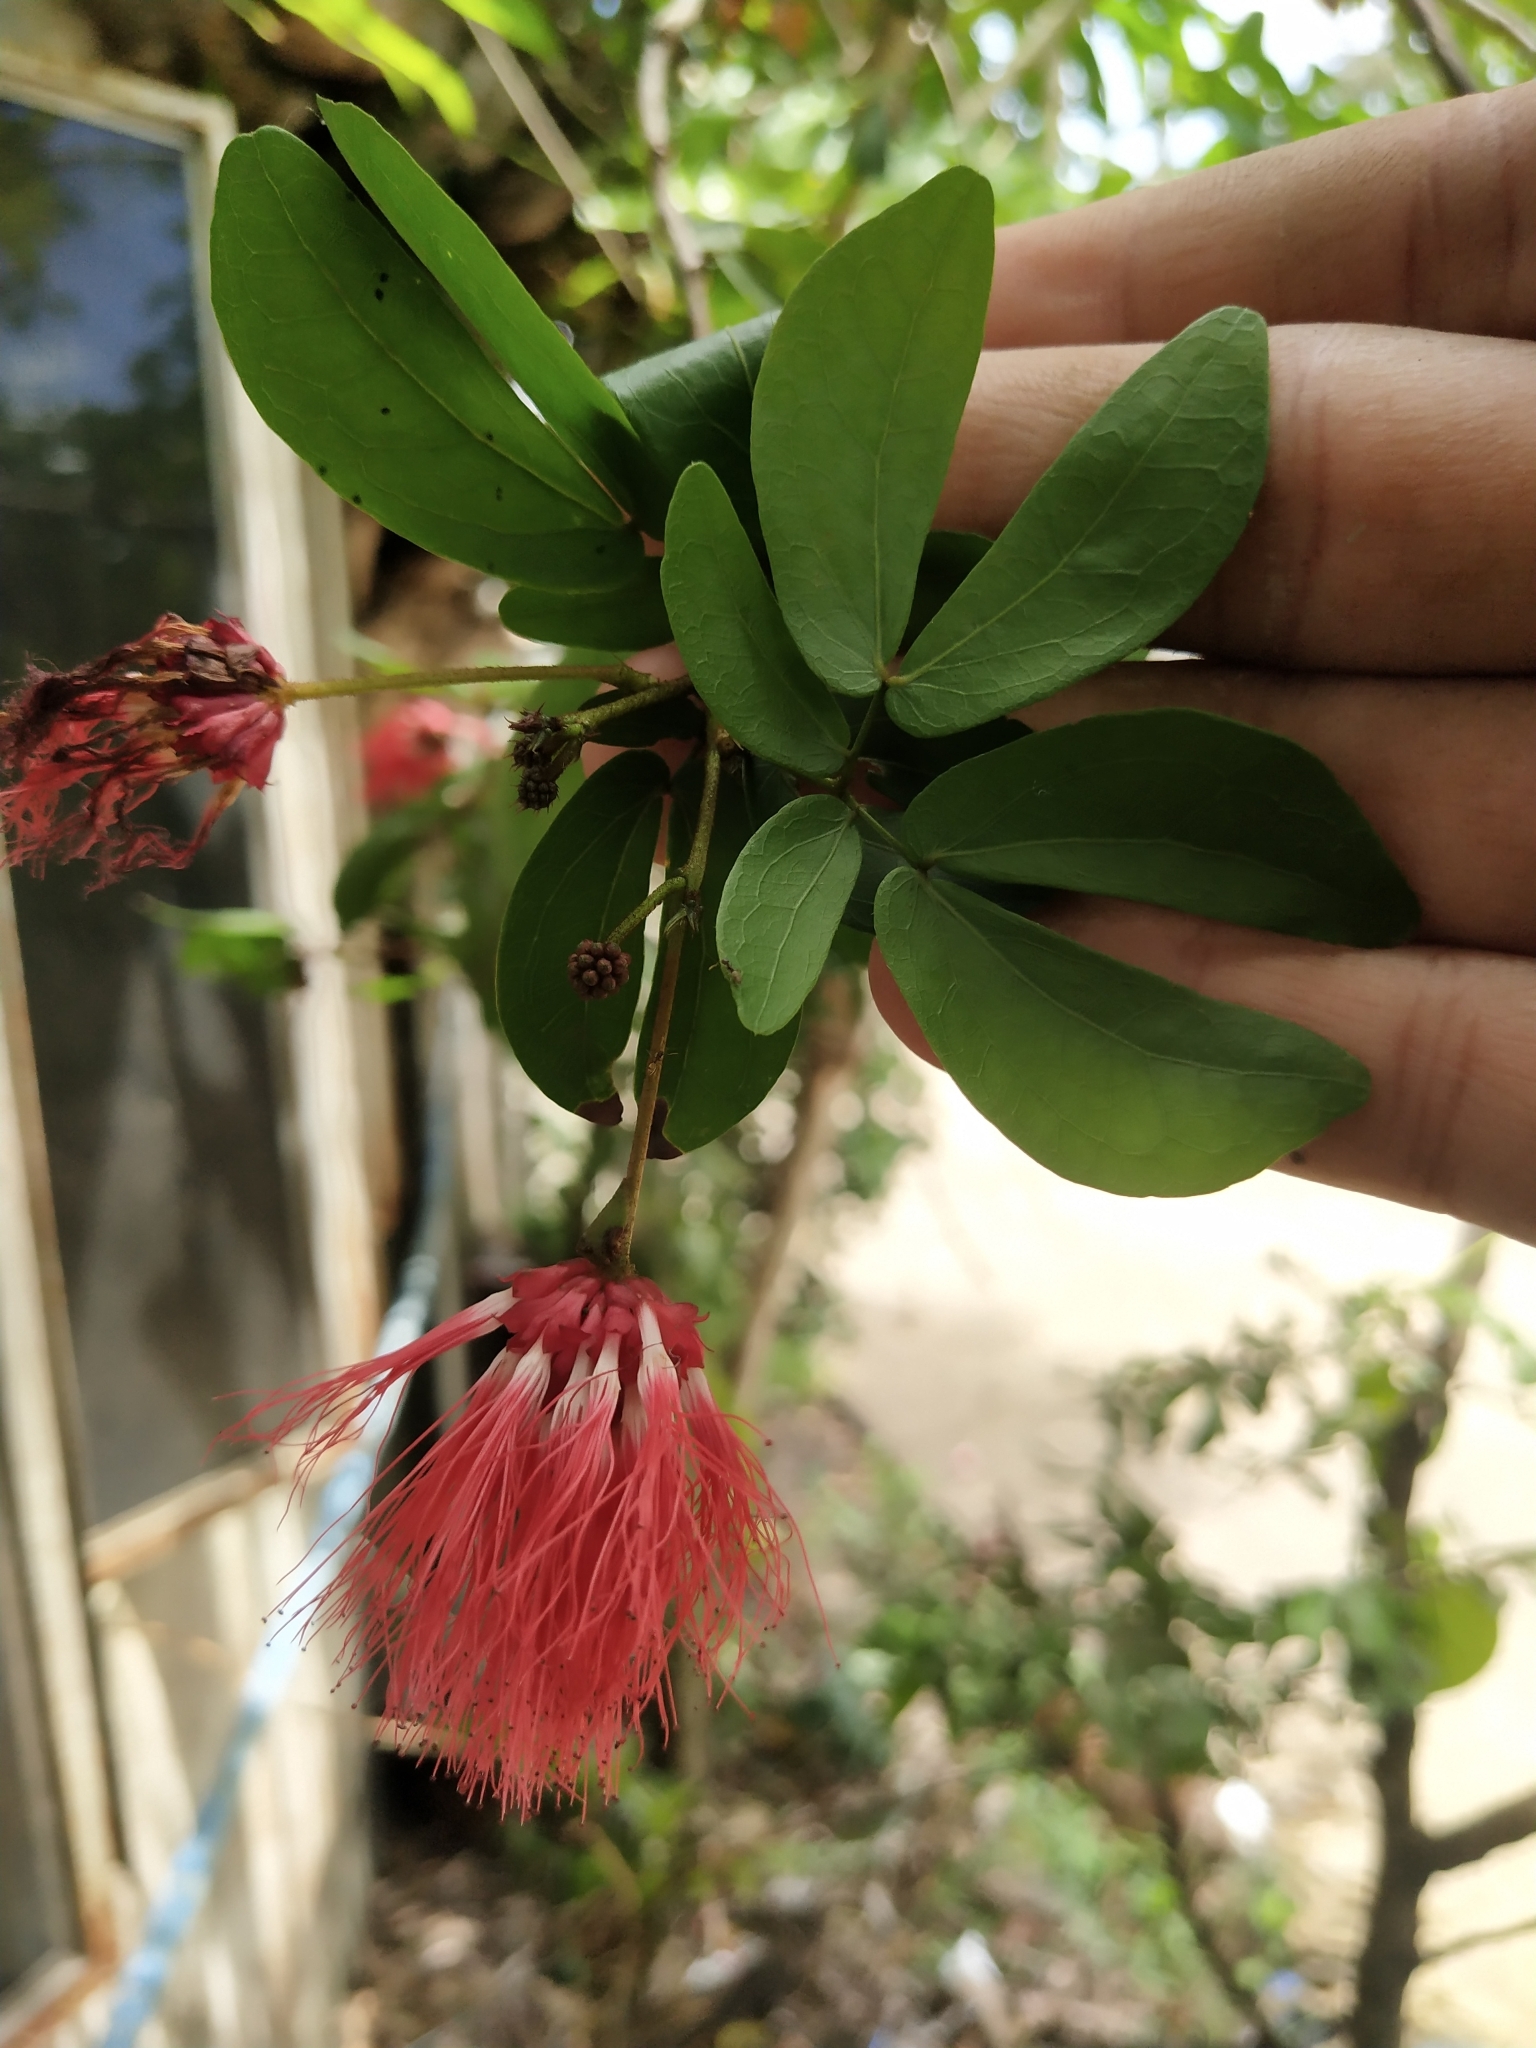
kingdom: Plantae
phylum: Tracheophyta
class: Magnoliopsida
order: Fabales
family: Fabaceae
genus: Calliandra
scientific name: Calliandra tergemina
